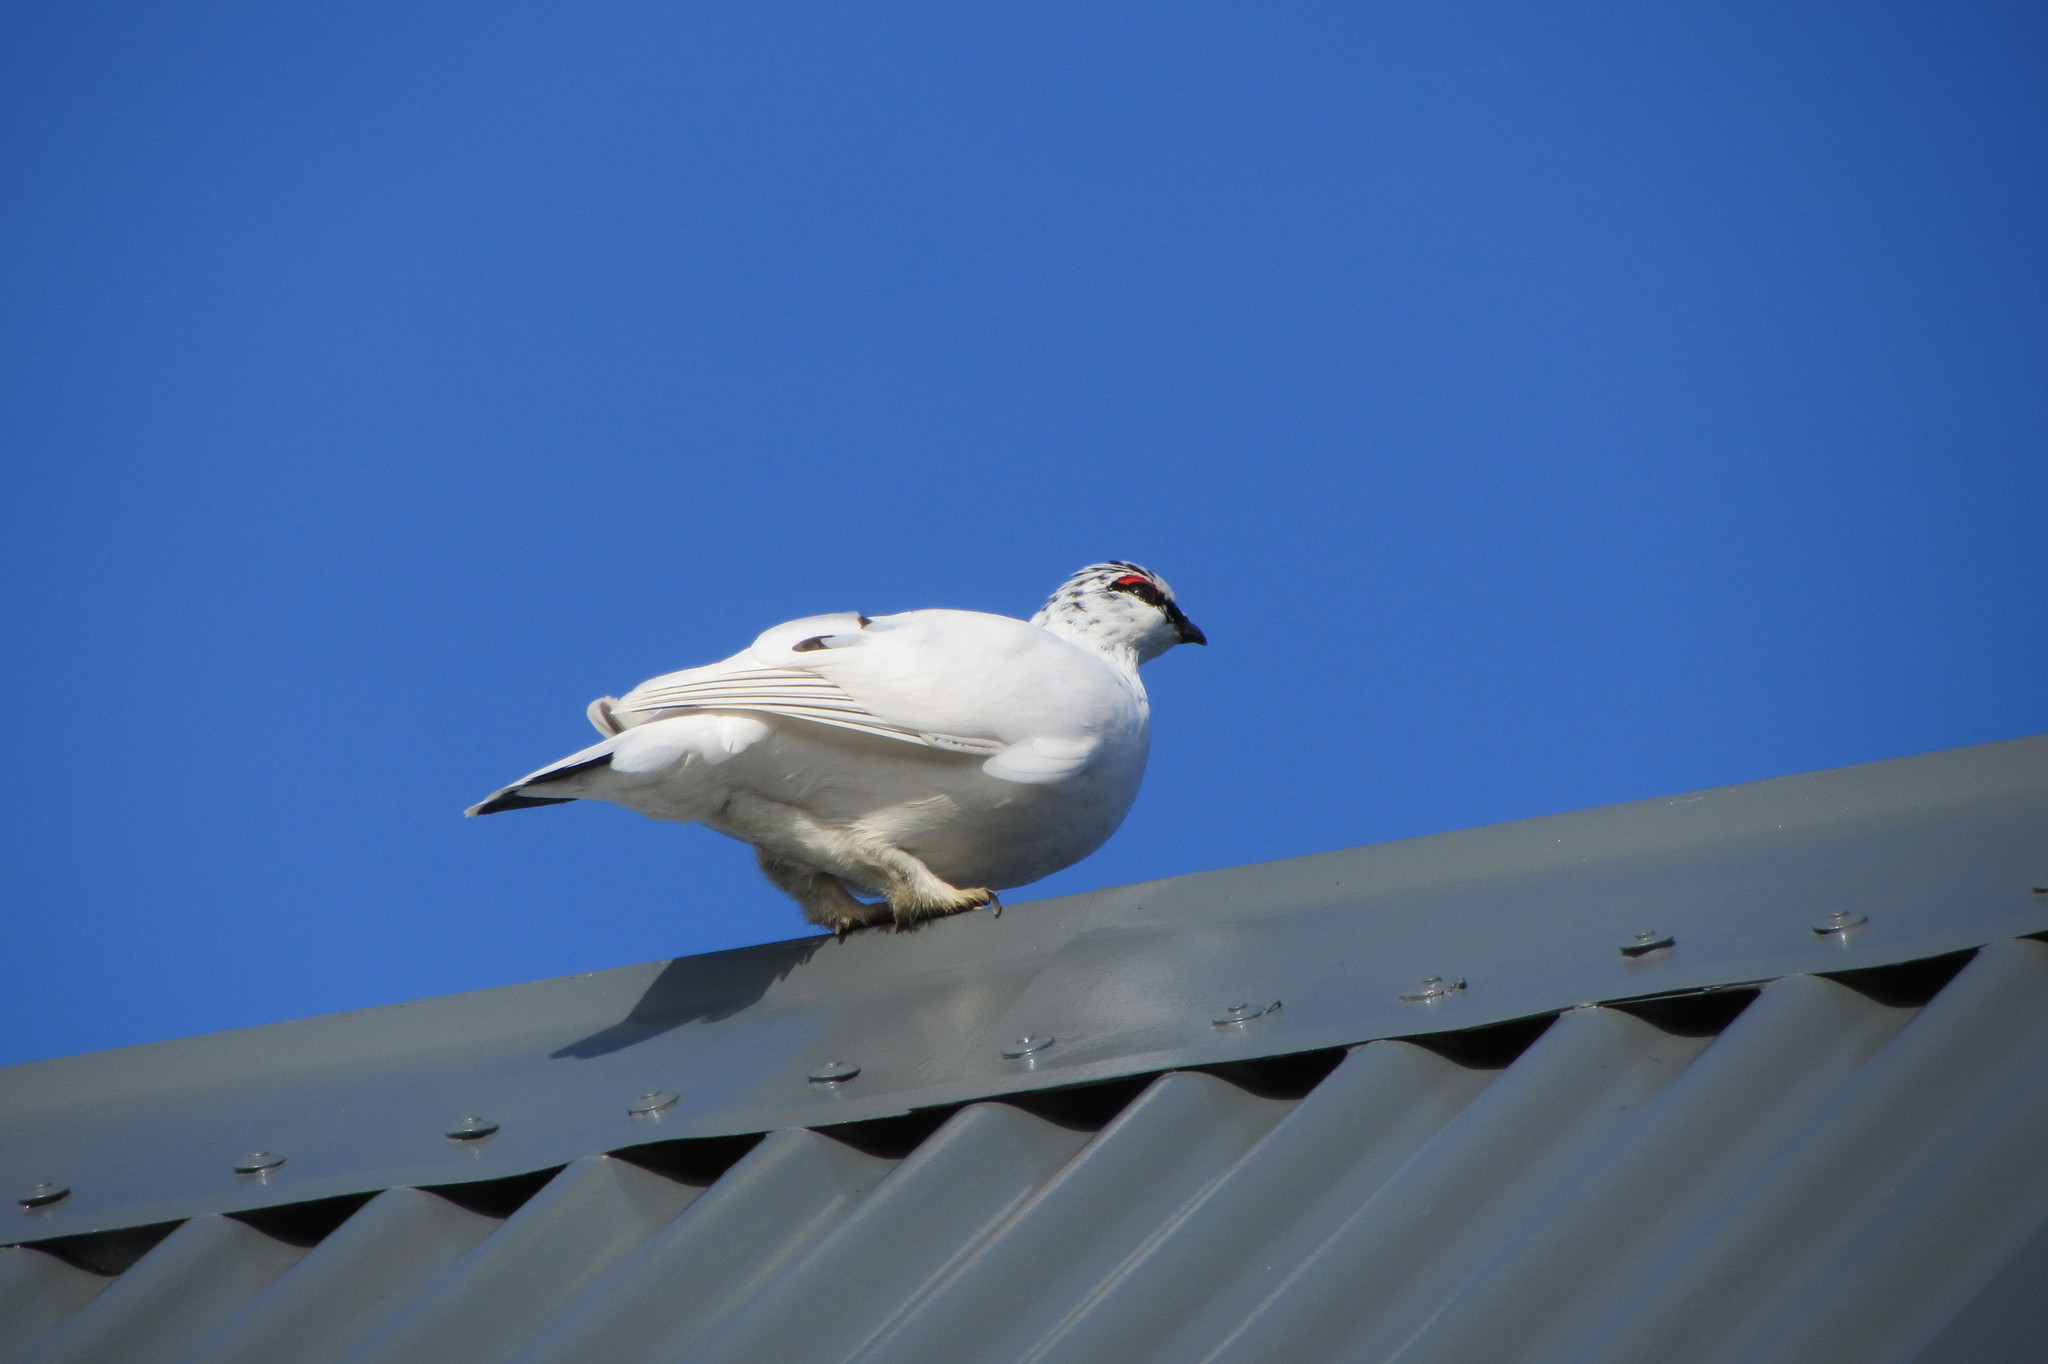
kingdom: Animalia
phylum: Chordata
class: Aves
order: Galliformes
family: Phasianidae
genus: Lagopus
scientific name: Lagopus muta
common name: Rock ptarmigan
